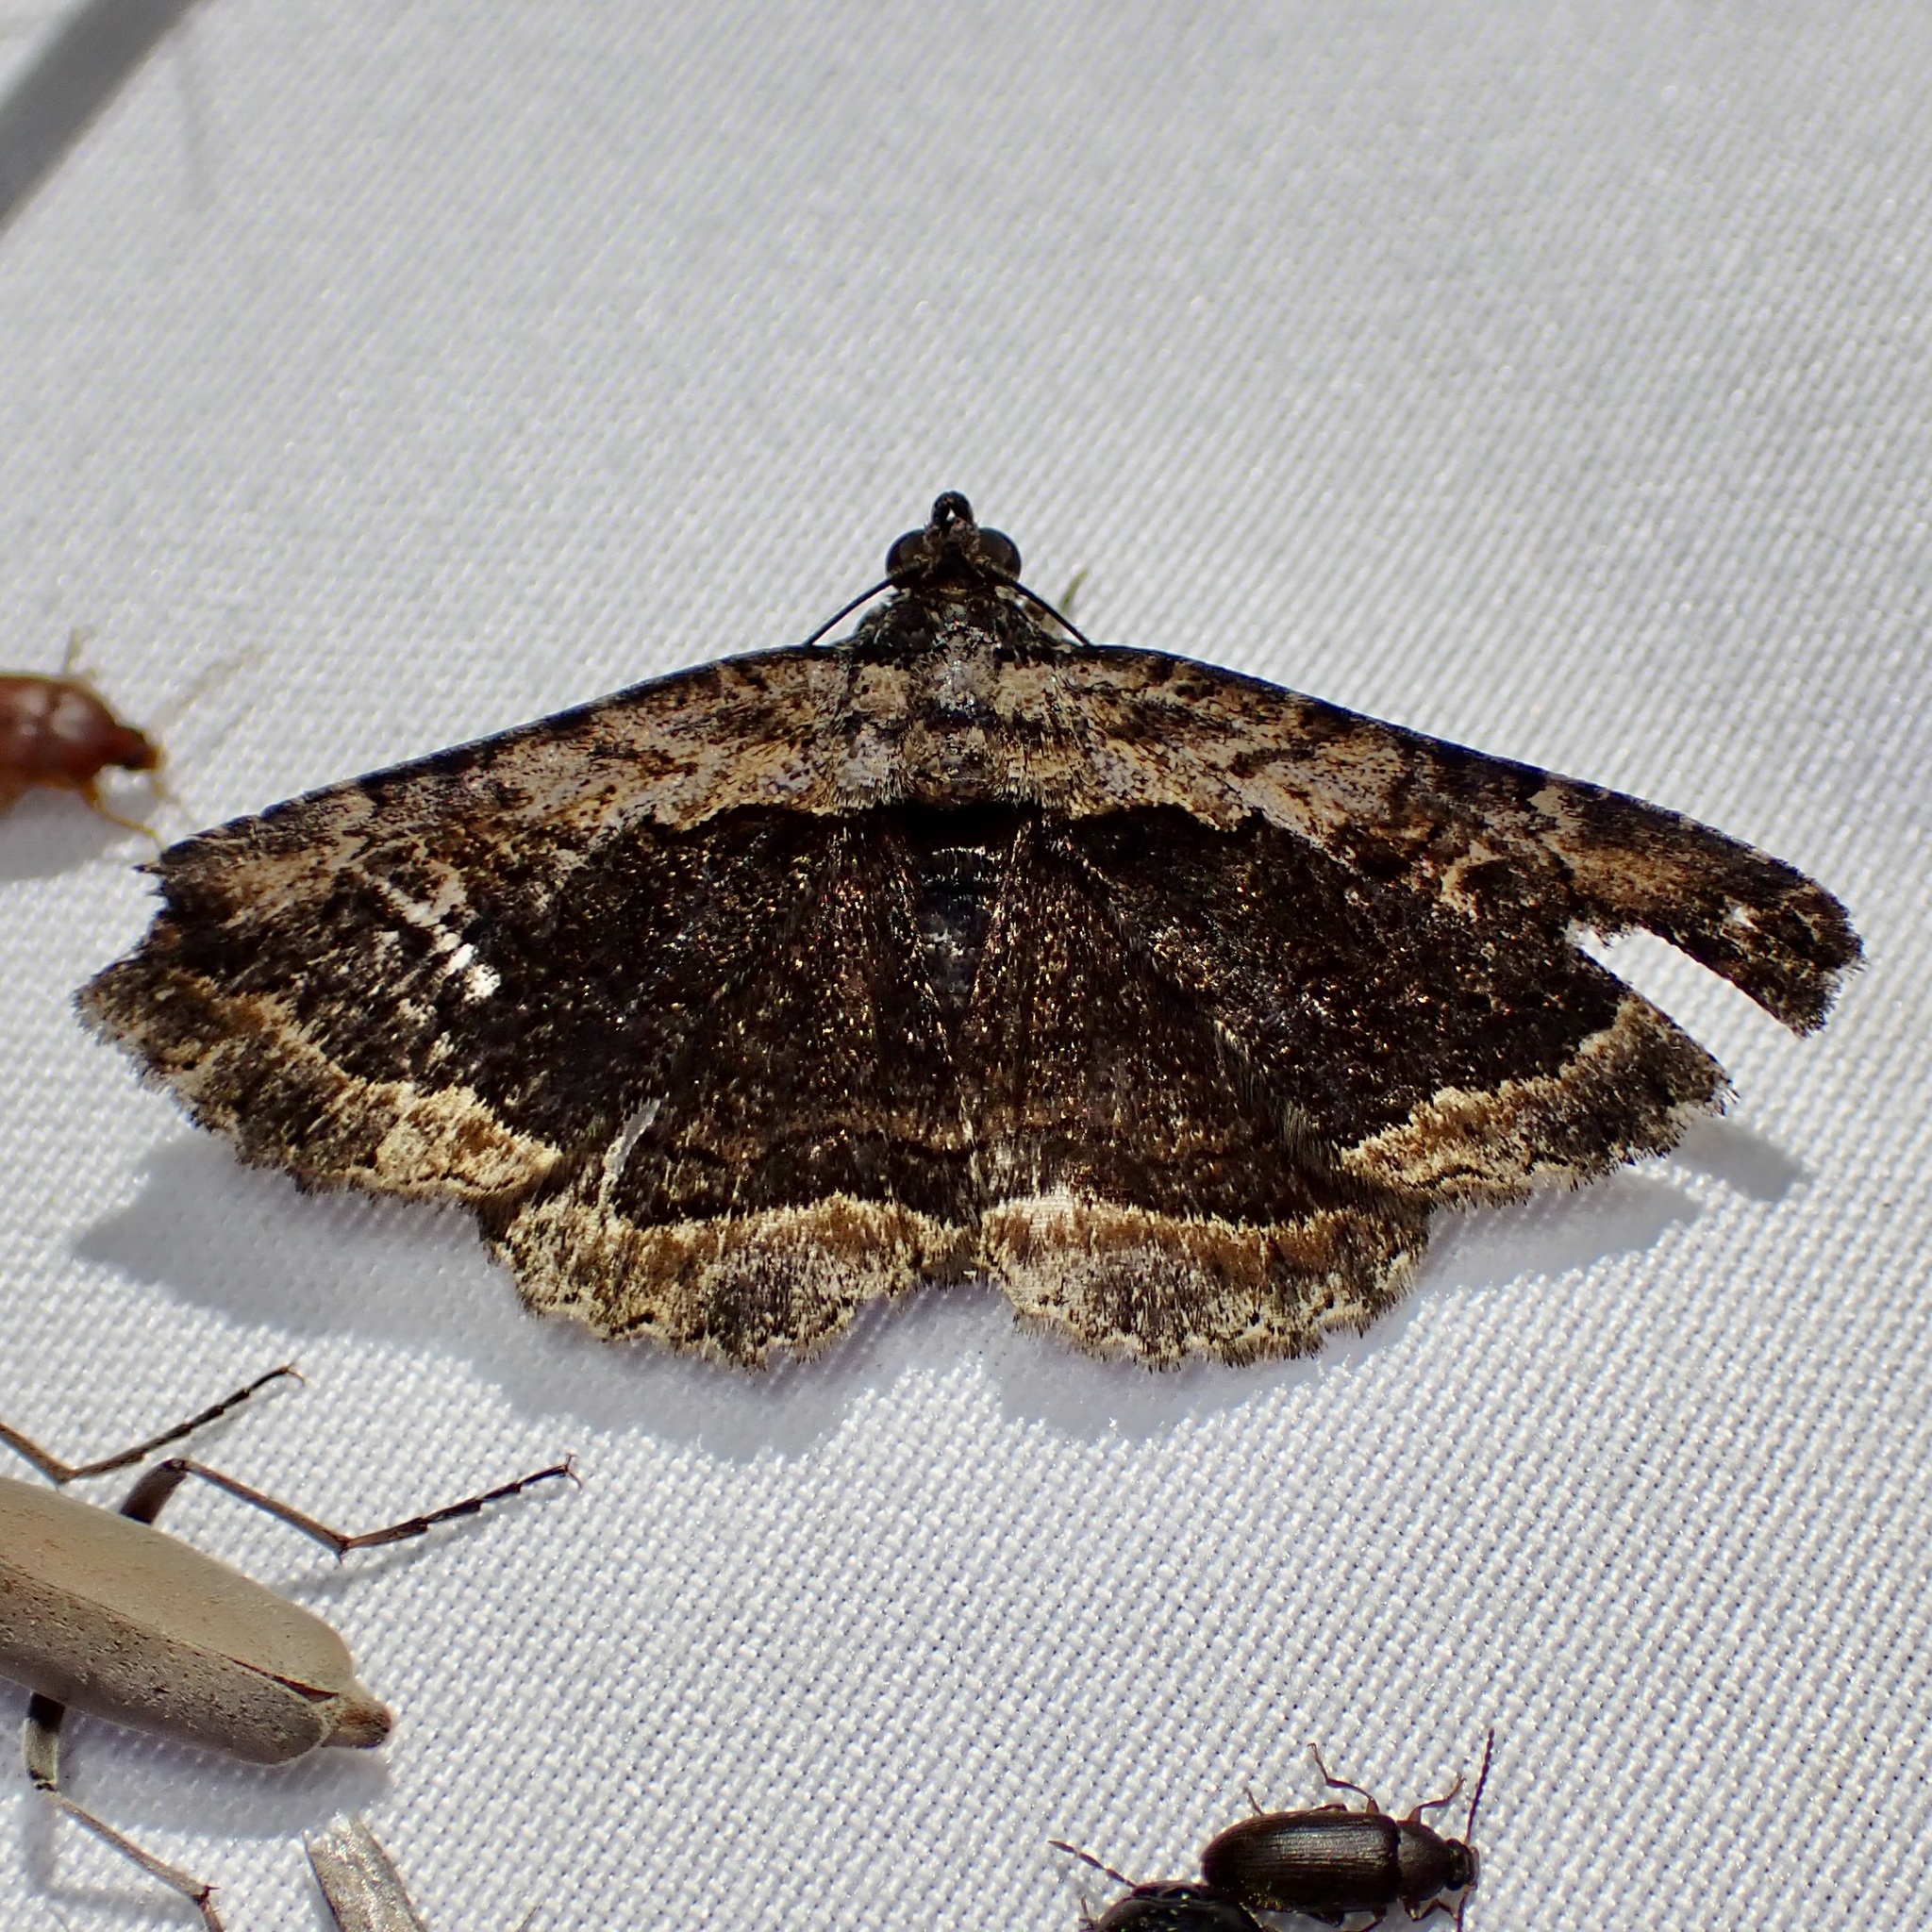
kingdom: Animalia
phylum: Arthropoda
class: Insecta
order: Lepidoptera
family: Erebidae
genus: Zaleops
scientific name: Zaleops umbrina
